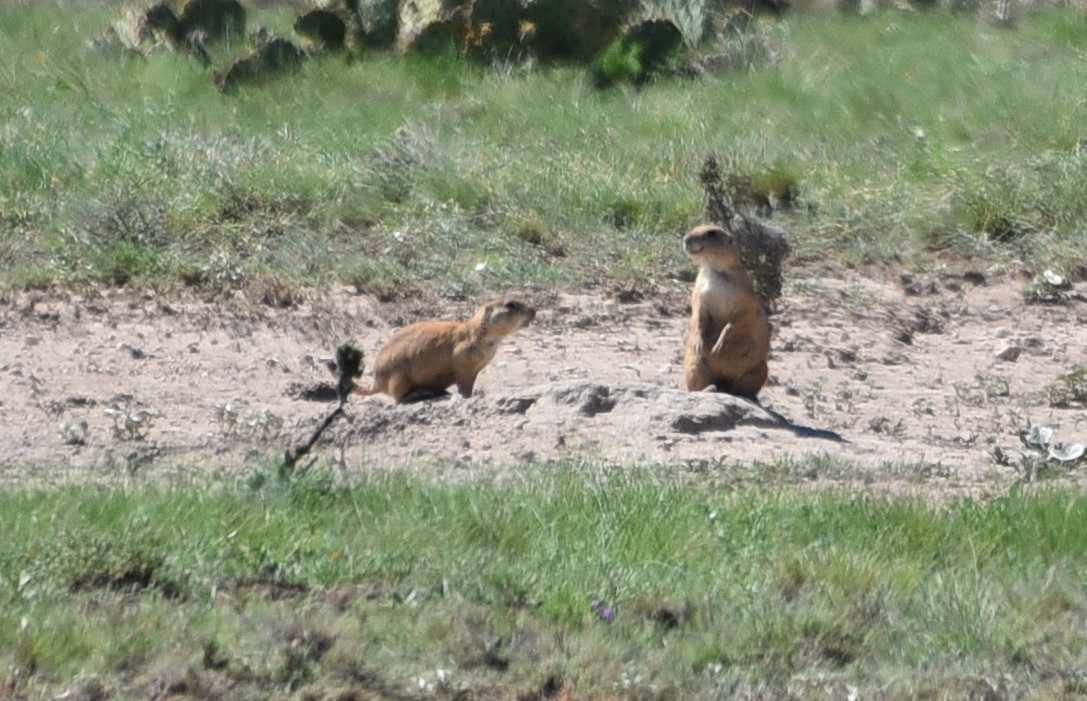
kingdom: Animalia
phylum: Chordata
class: Mammalia
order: Rodentia
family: Sciuridae
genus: Cynomys
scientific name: Cynomys ludovicianus
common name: Black-tailed prairie dog
